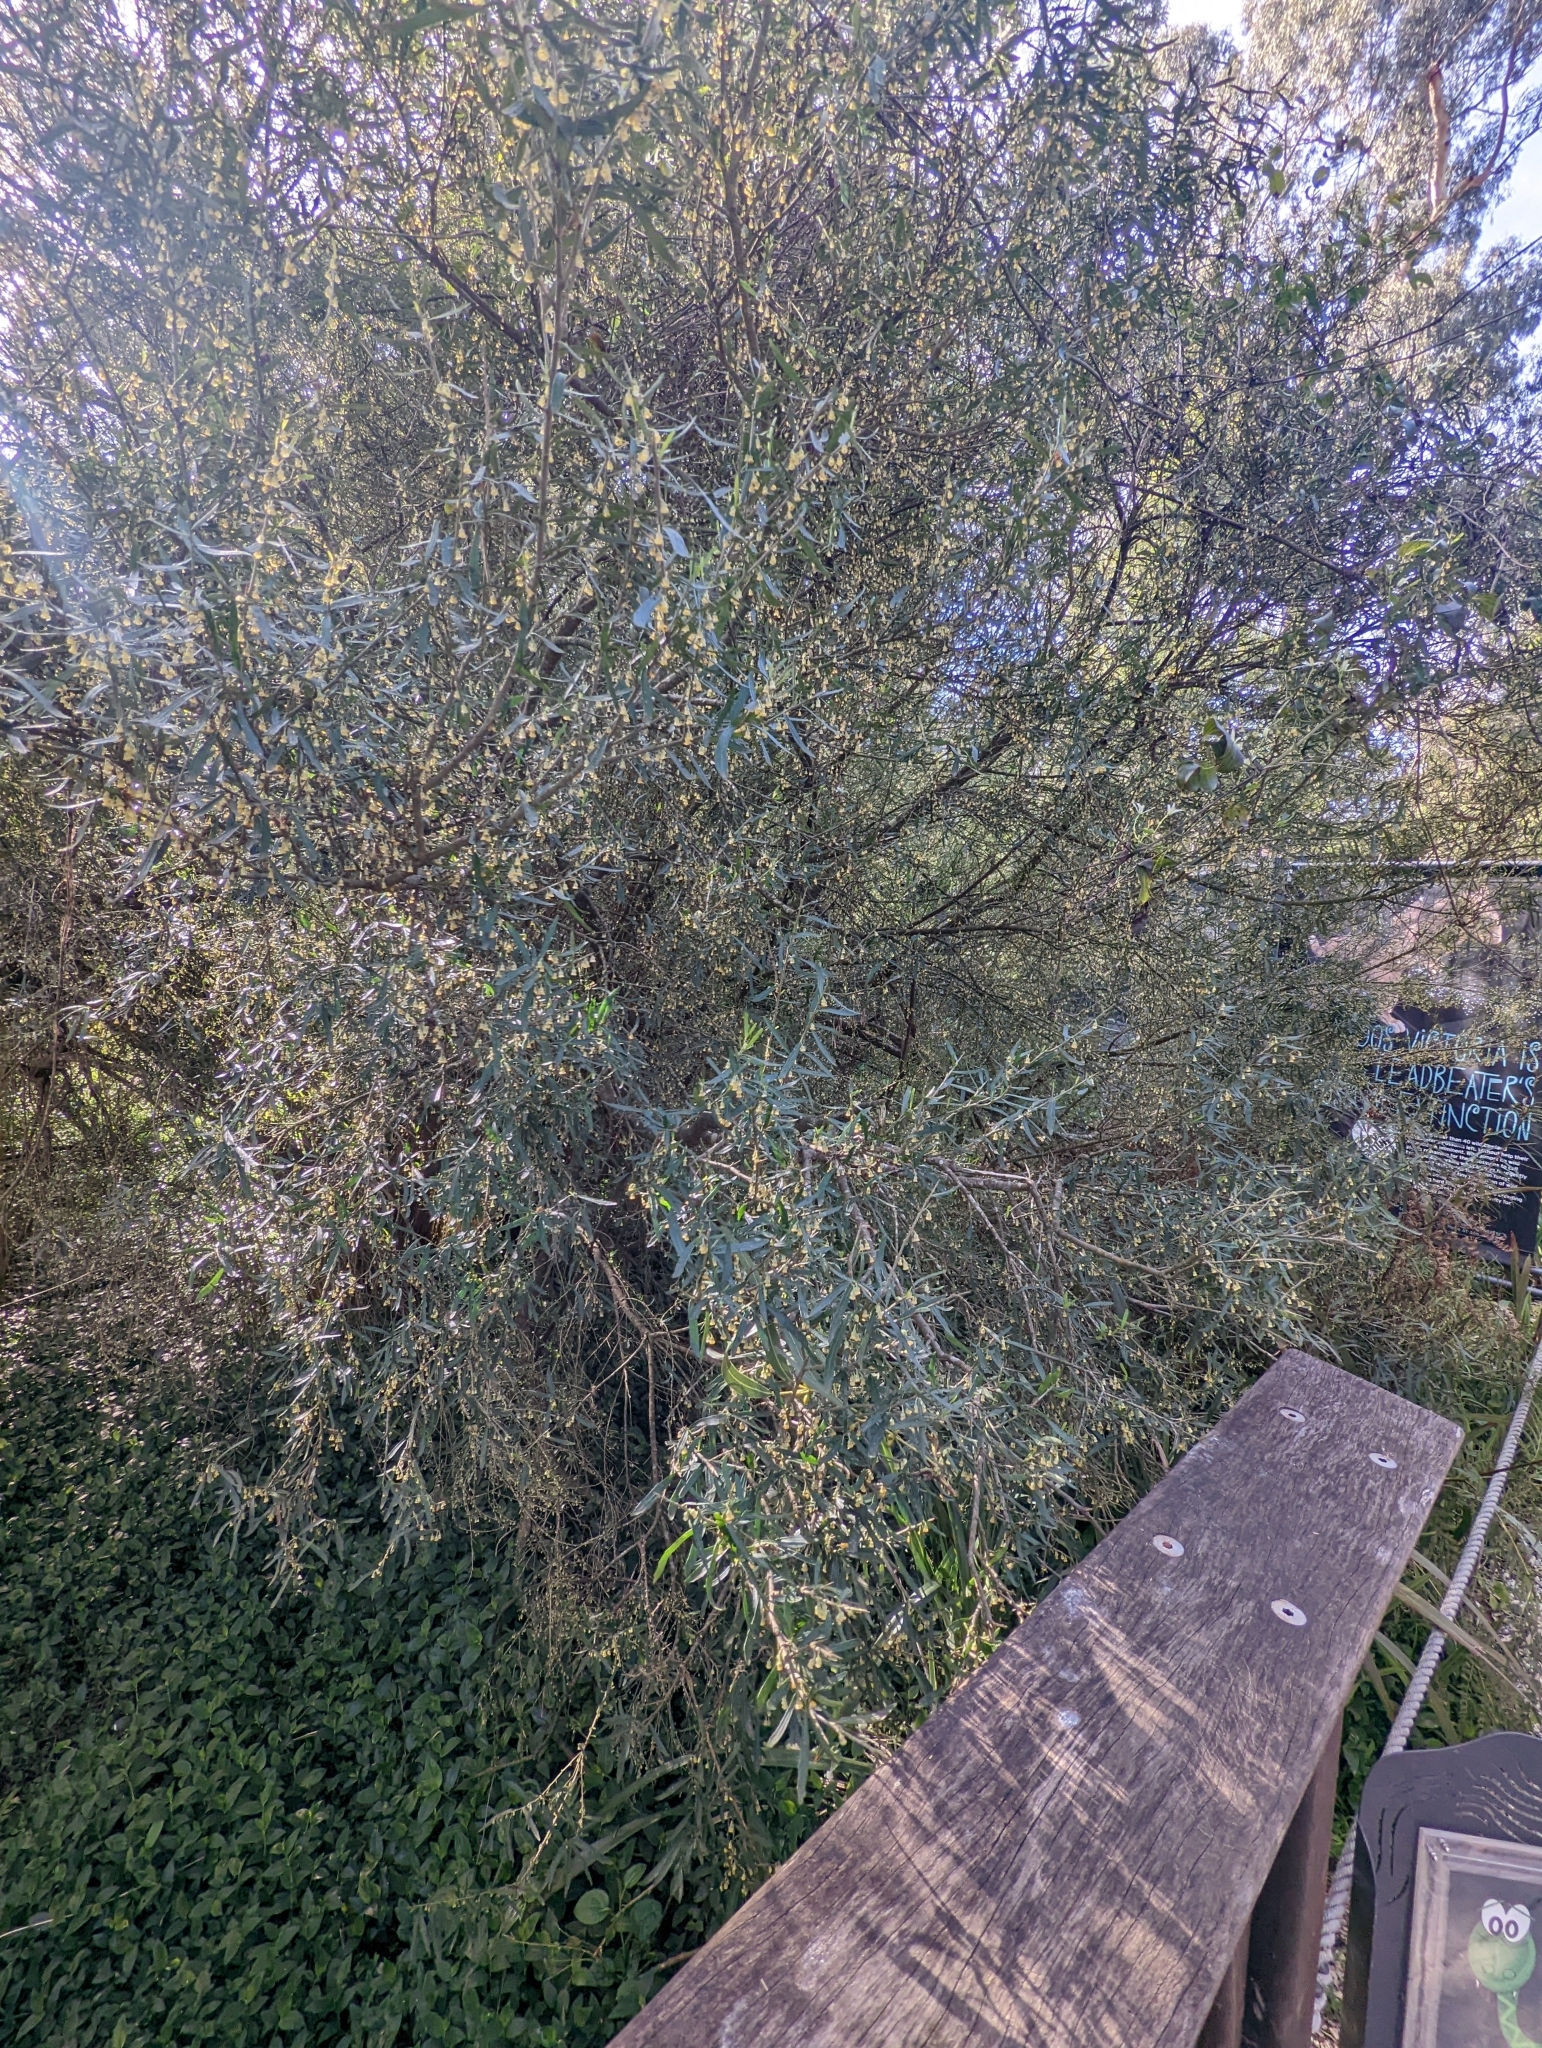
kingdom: Plantae
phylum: Tracheophyta
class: Magnoliopsida
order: Malpighiales
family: Violaceae
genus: Melicytus
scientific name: Melicytus dentatus
